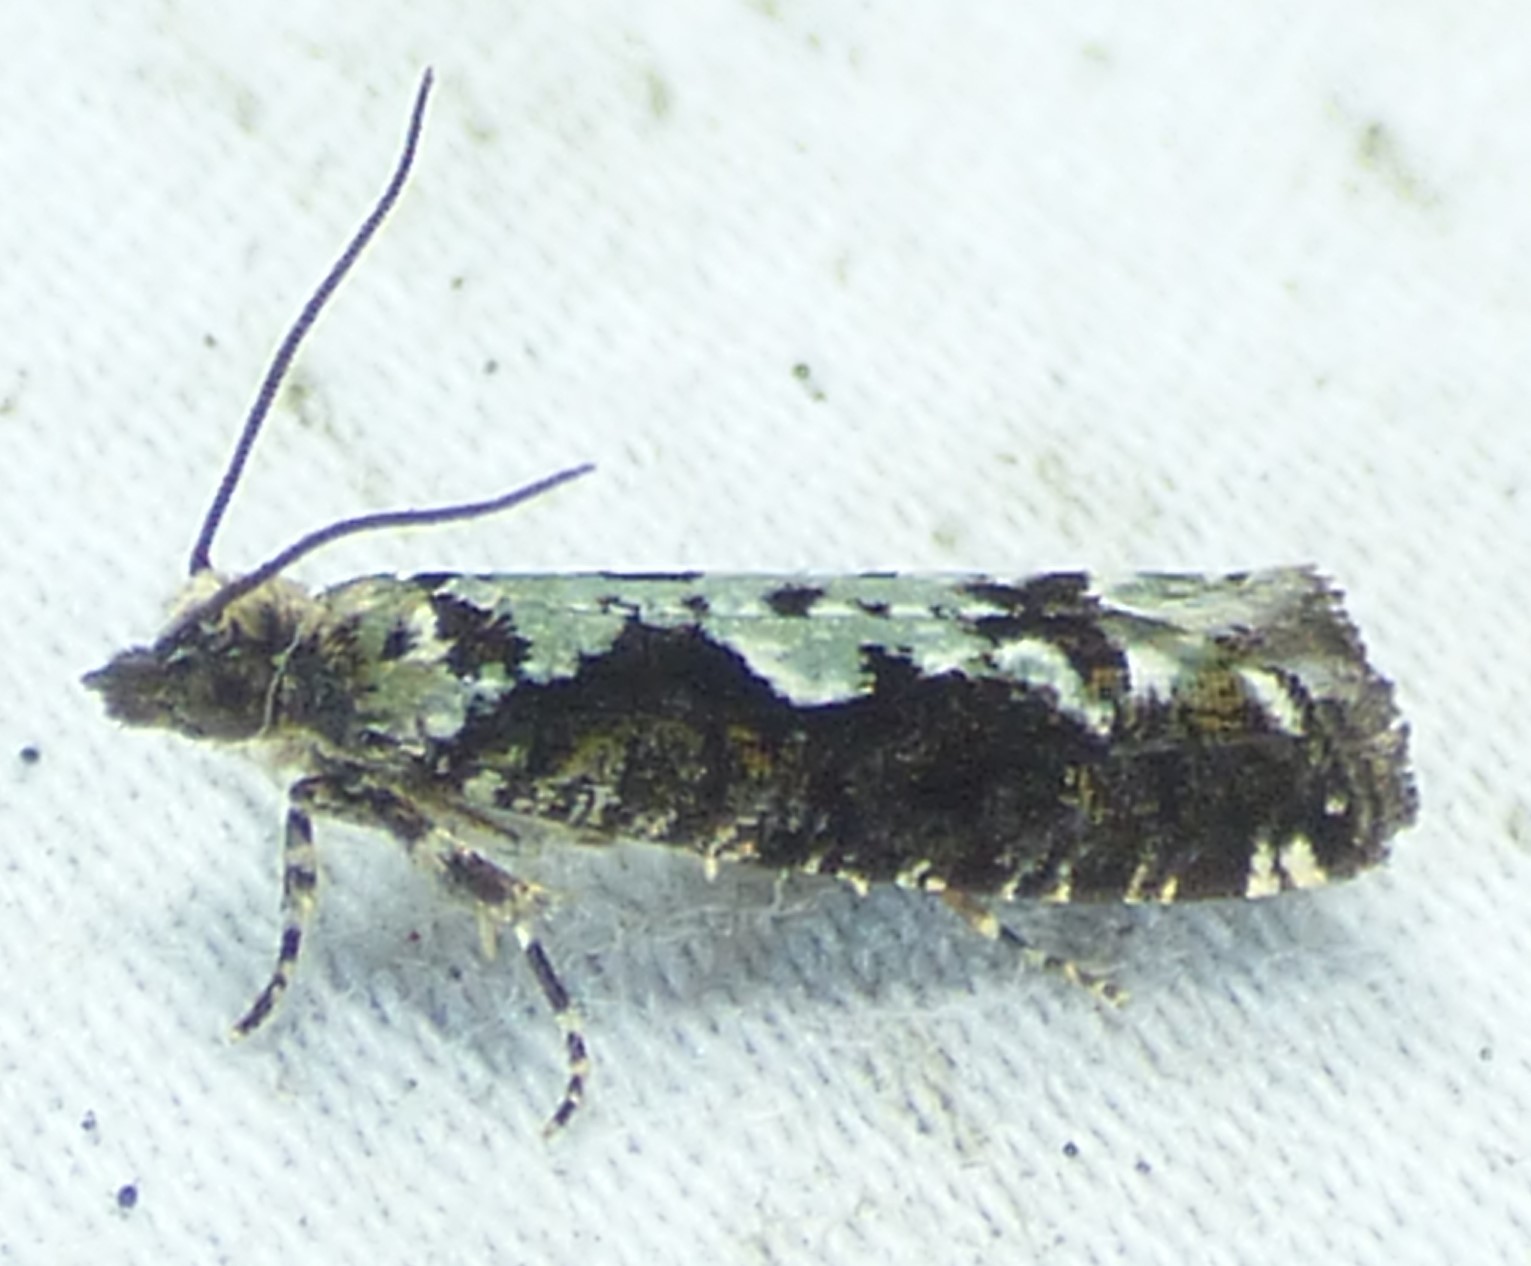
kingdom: Animalia
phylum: Arthropoda
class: Insecta
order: Lepidoptera
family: Tortricidae
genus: Chimoptesis
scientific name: Chimoptesis pennsylvaniana
